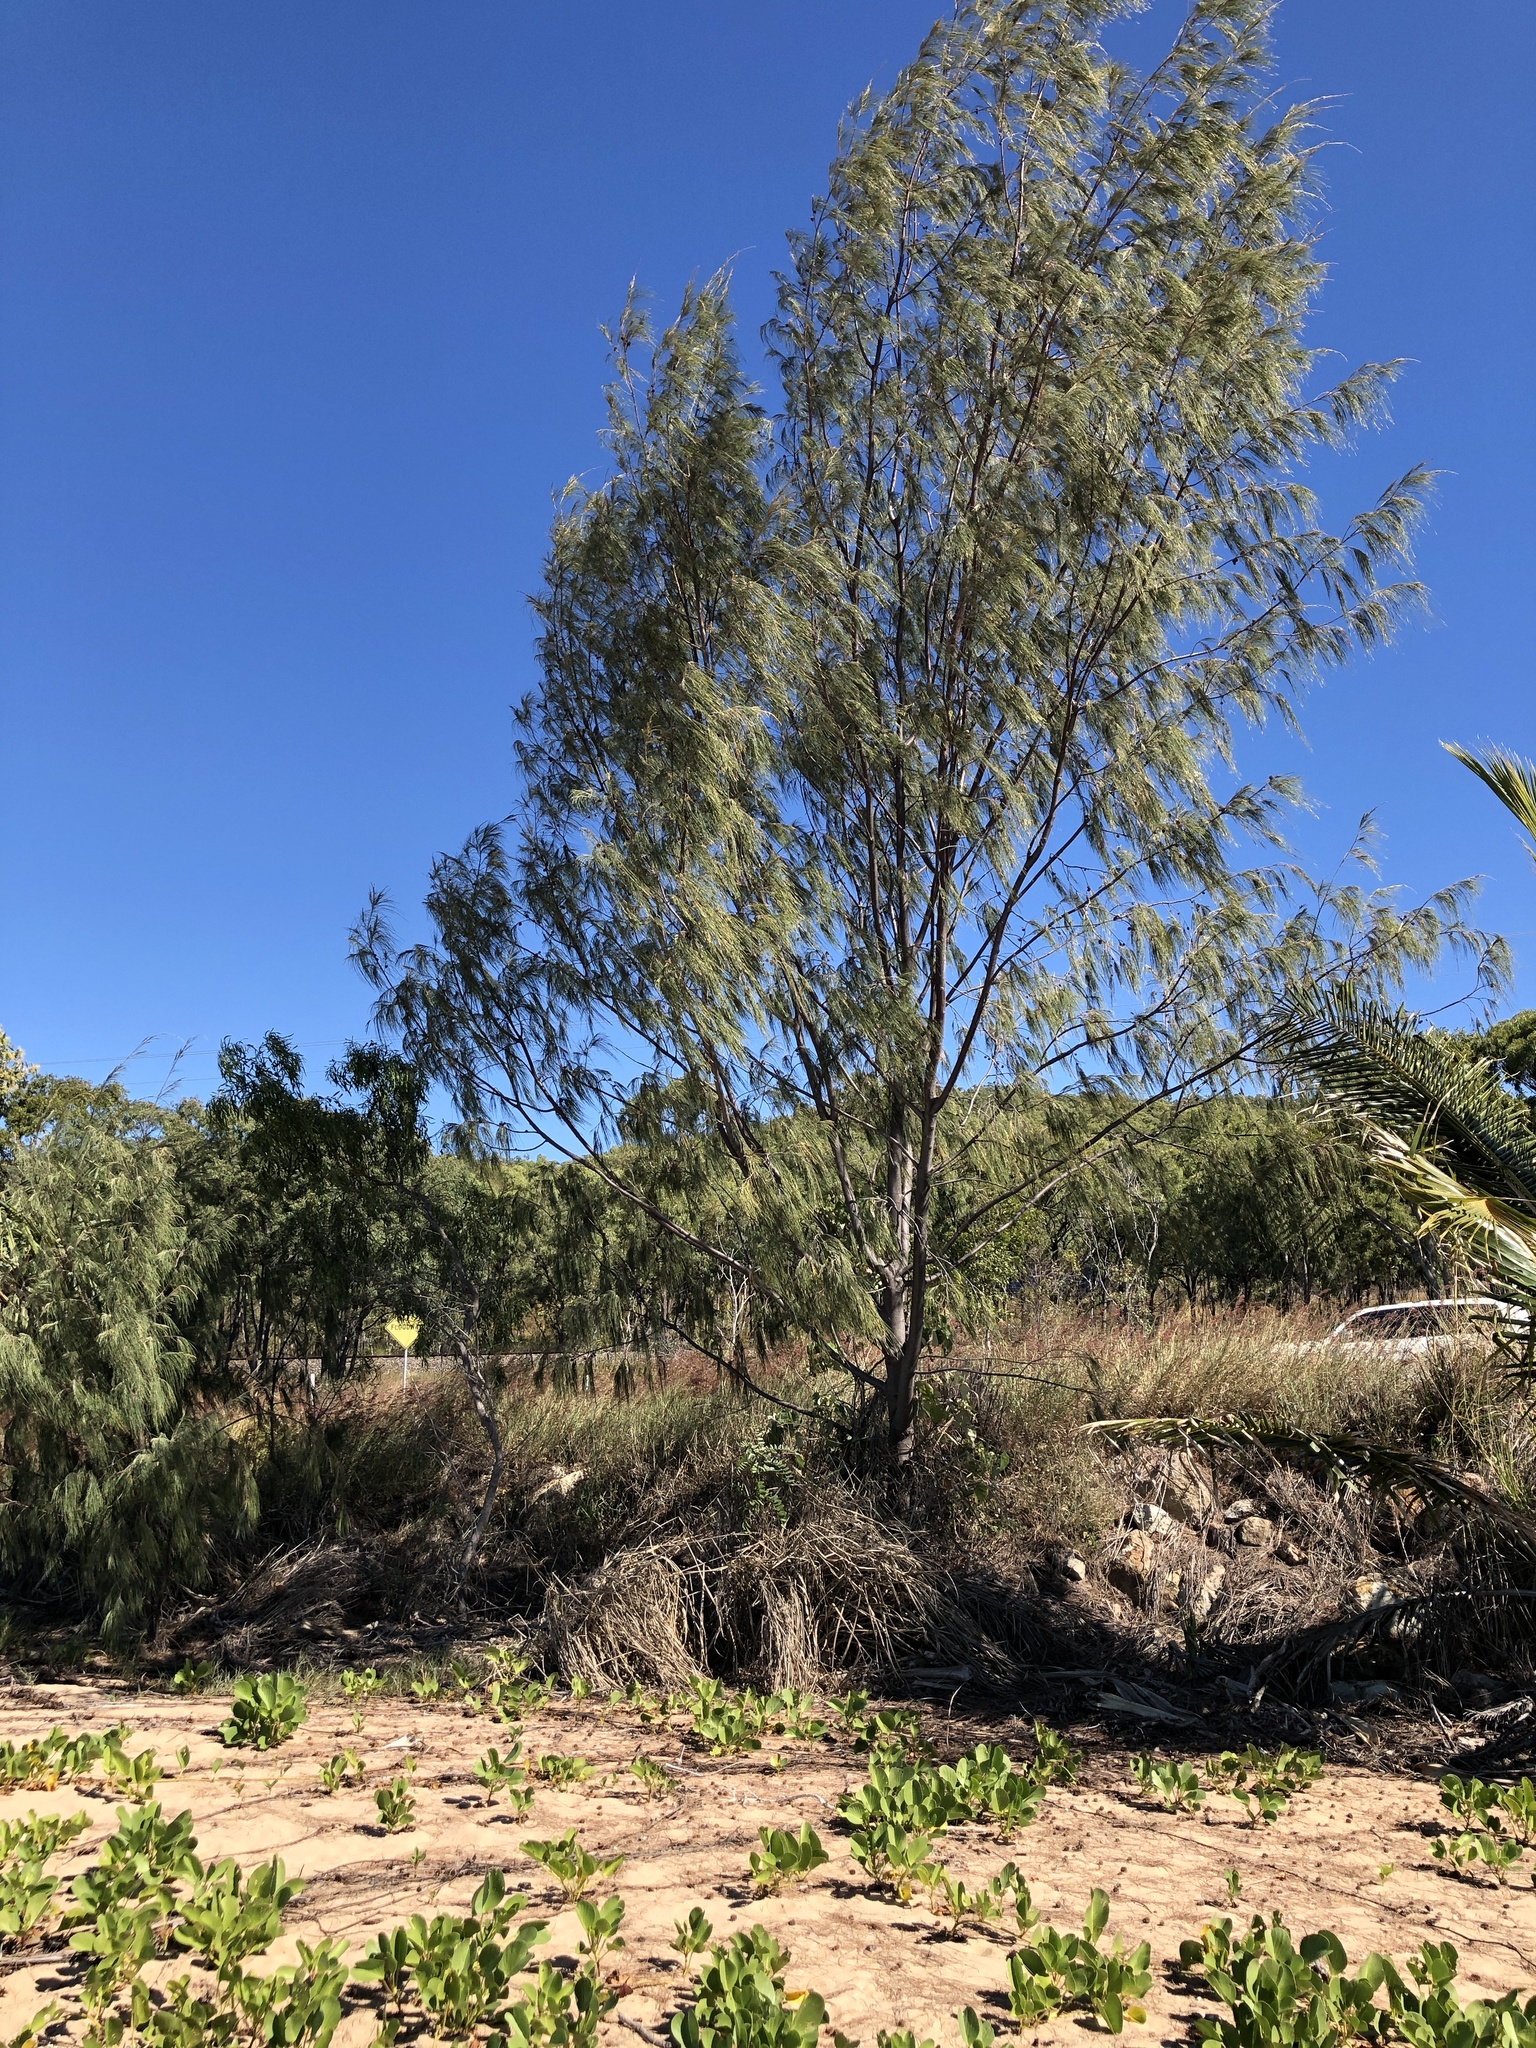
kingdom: Plantae
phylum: Tracheophyta
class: Magnoliopsida
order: Fagales
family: Casuarinaceae
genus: Casuarina
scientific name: Casuarina equisetifolia
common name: Beach sheoak
